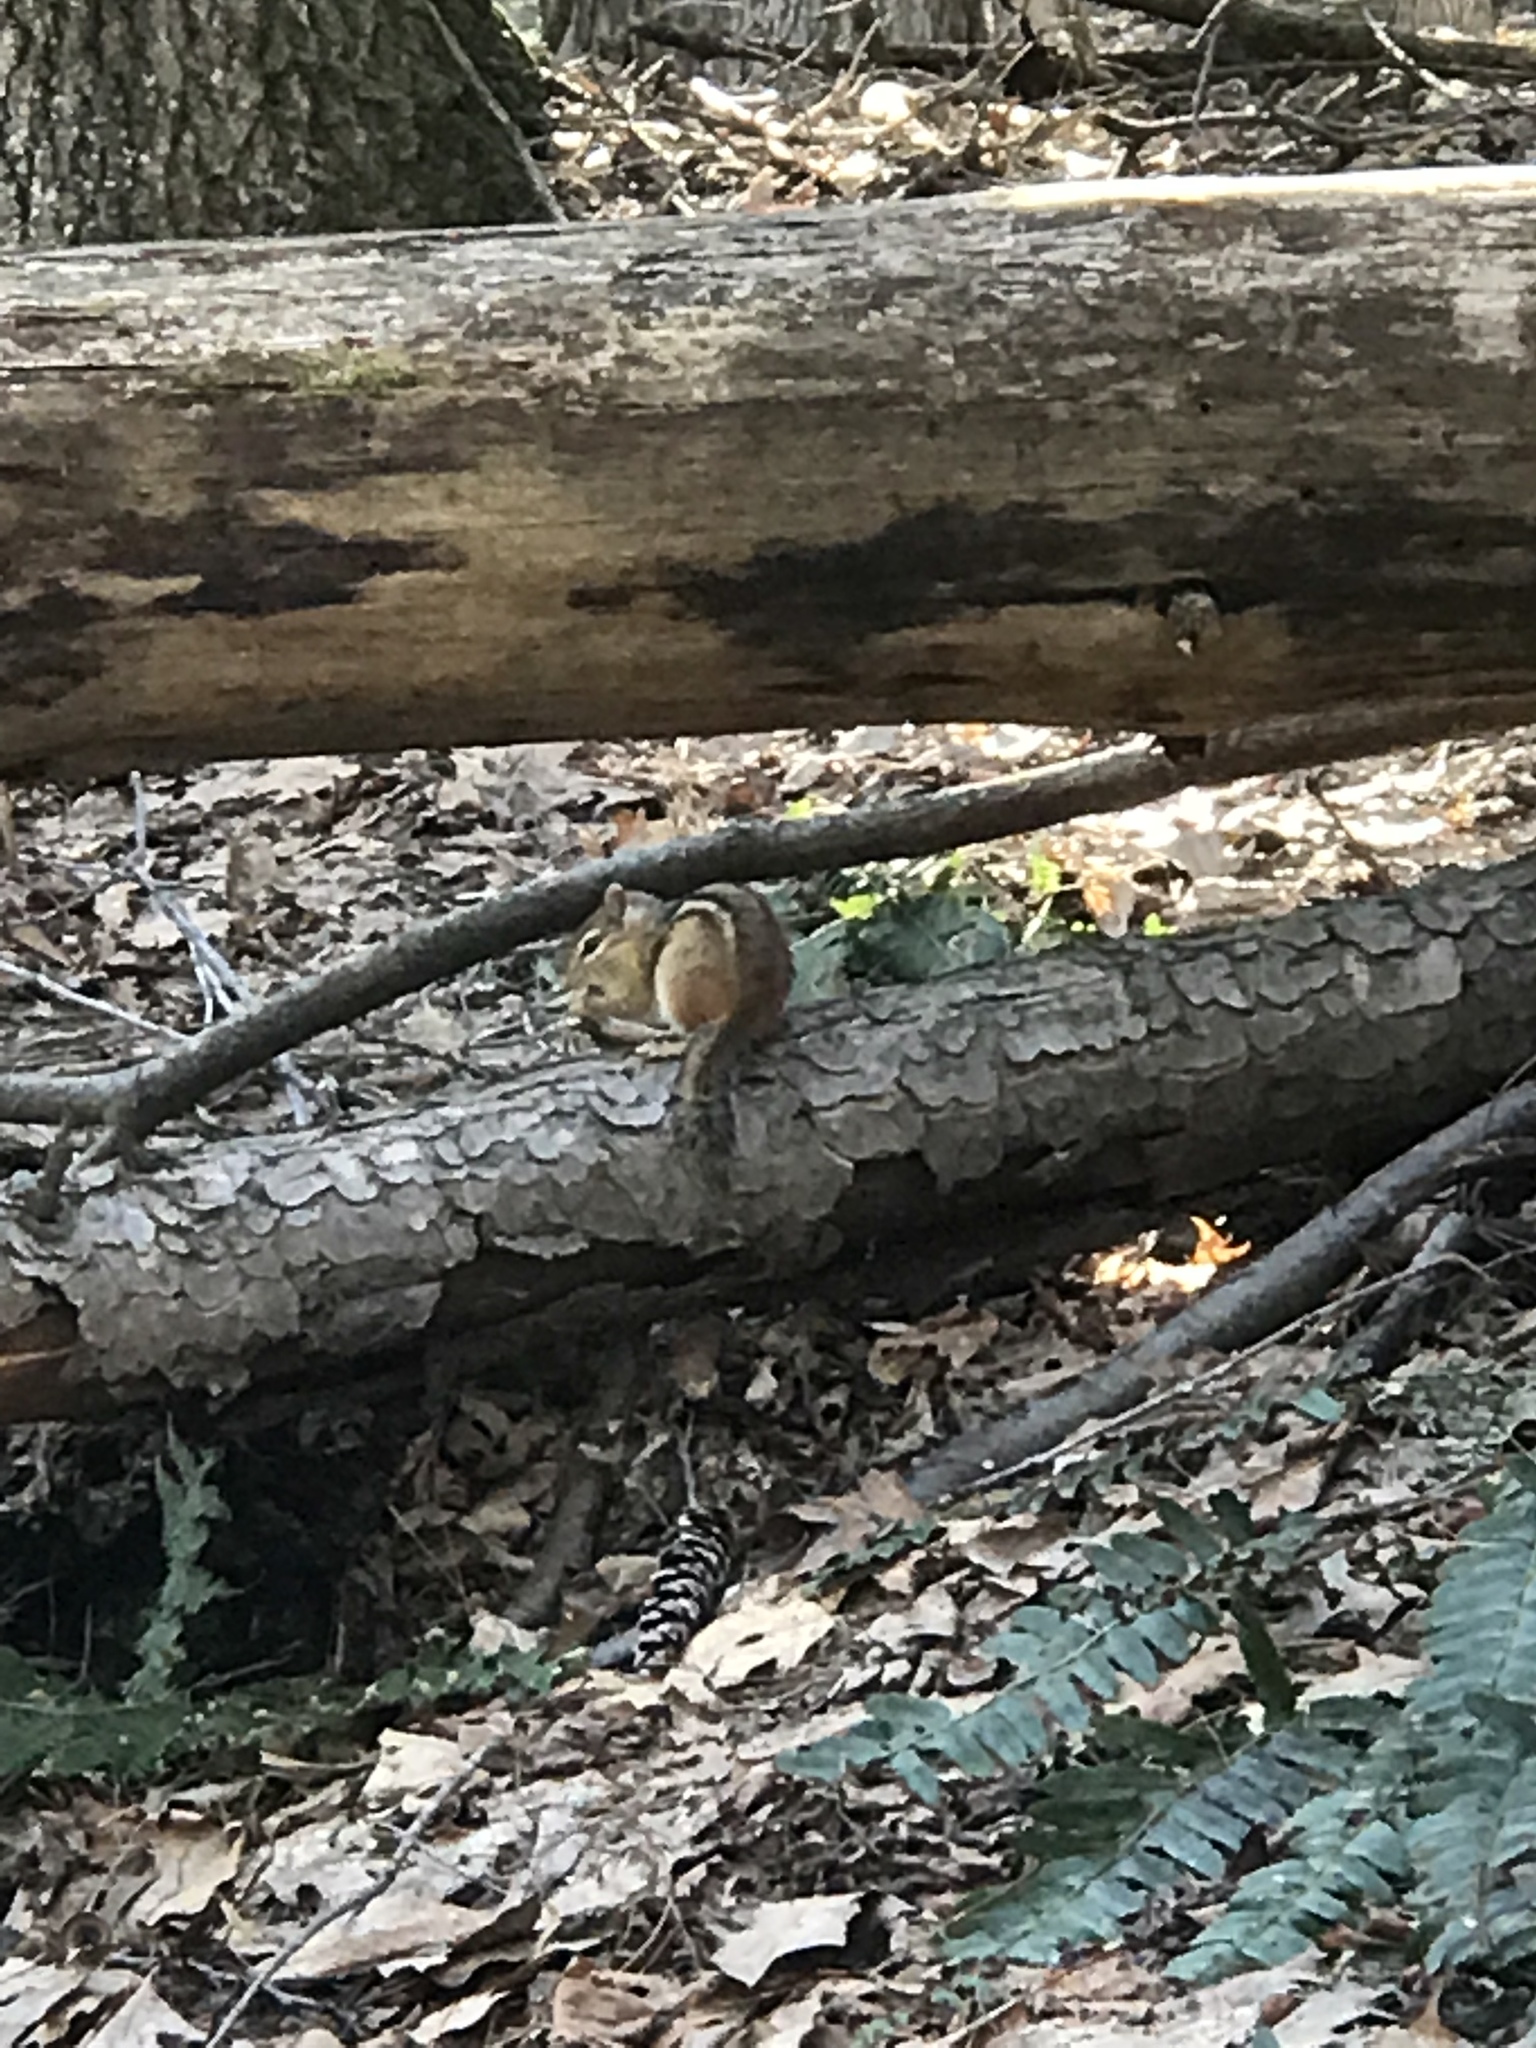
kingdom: Animalia
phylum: Chordata
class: Mammalia
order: Rodentia
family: Sciuridae
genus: Tamias
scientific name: Tamias striatus
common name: Eastern chipmunk
